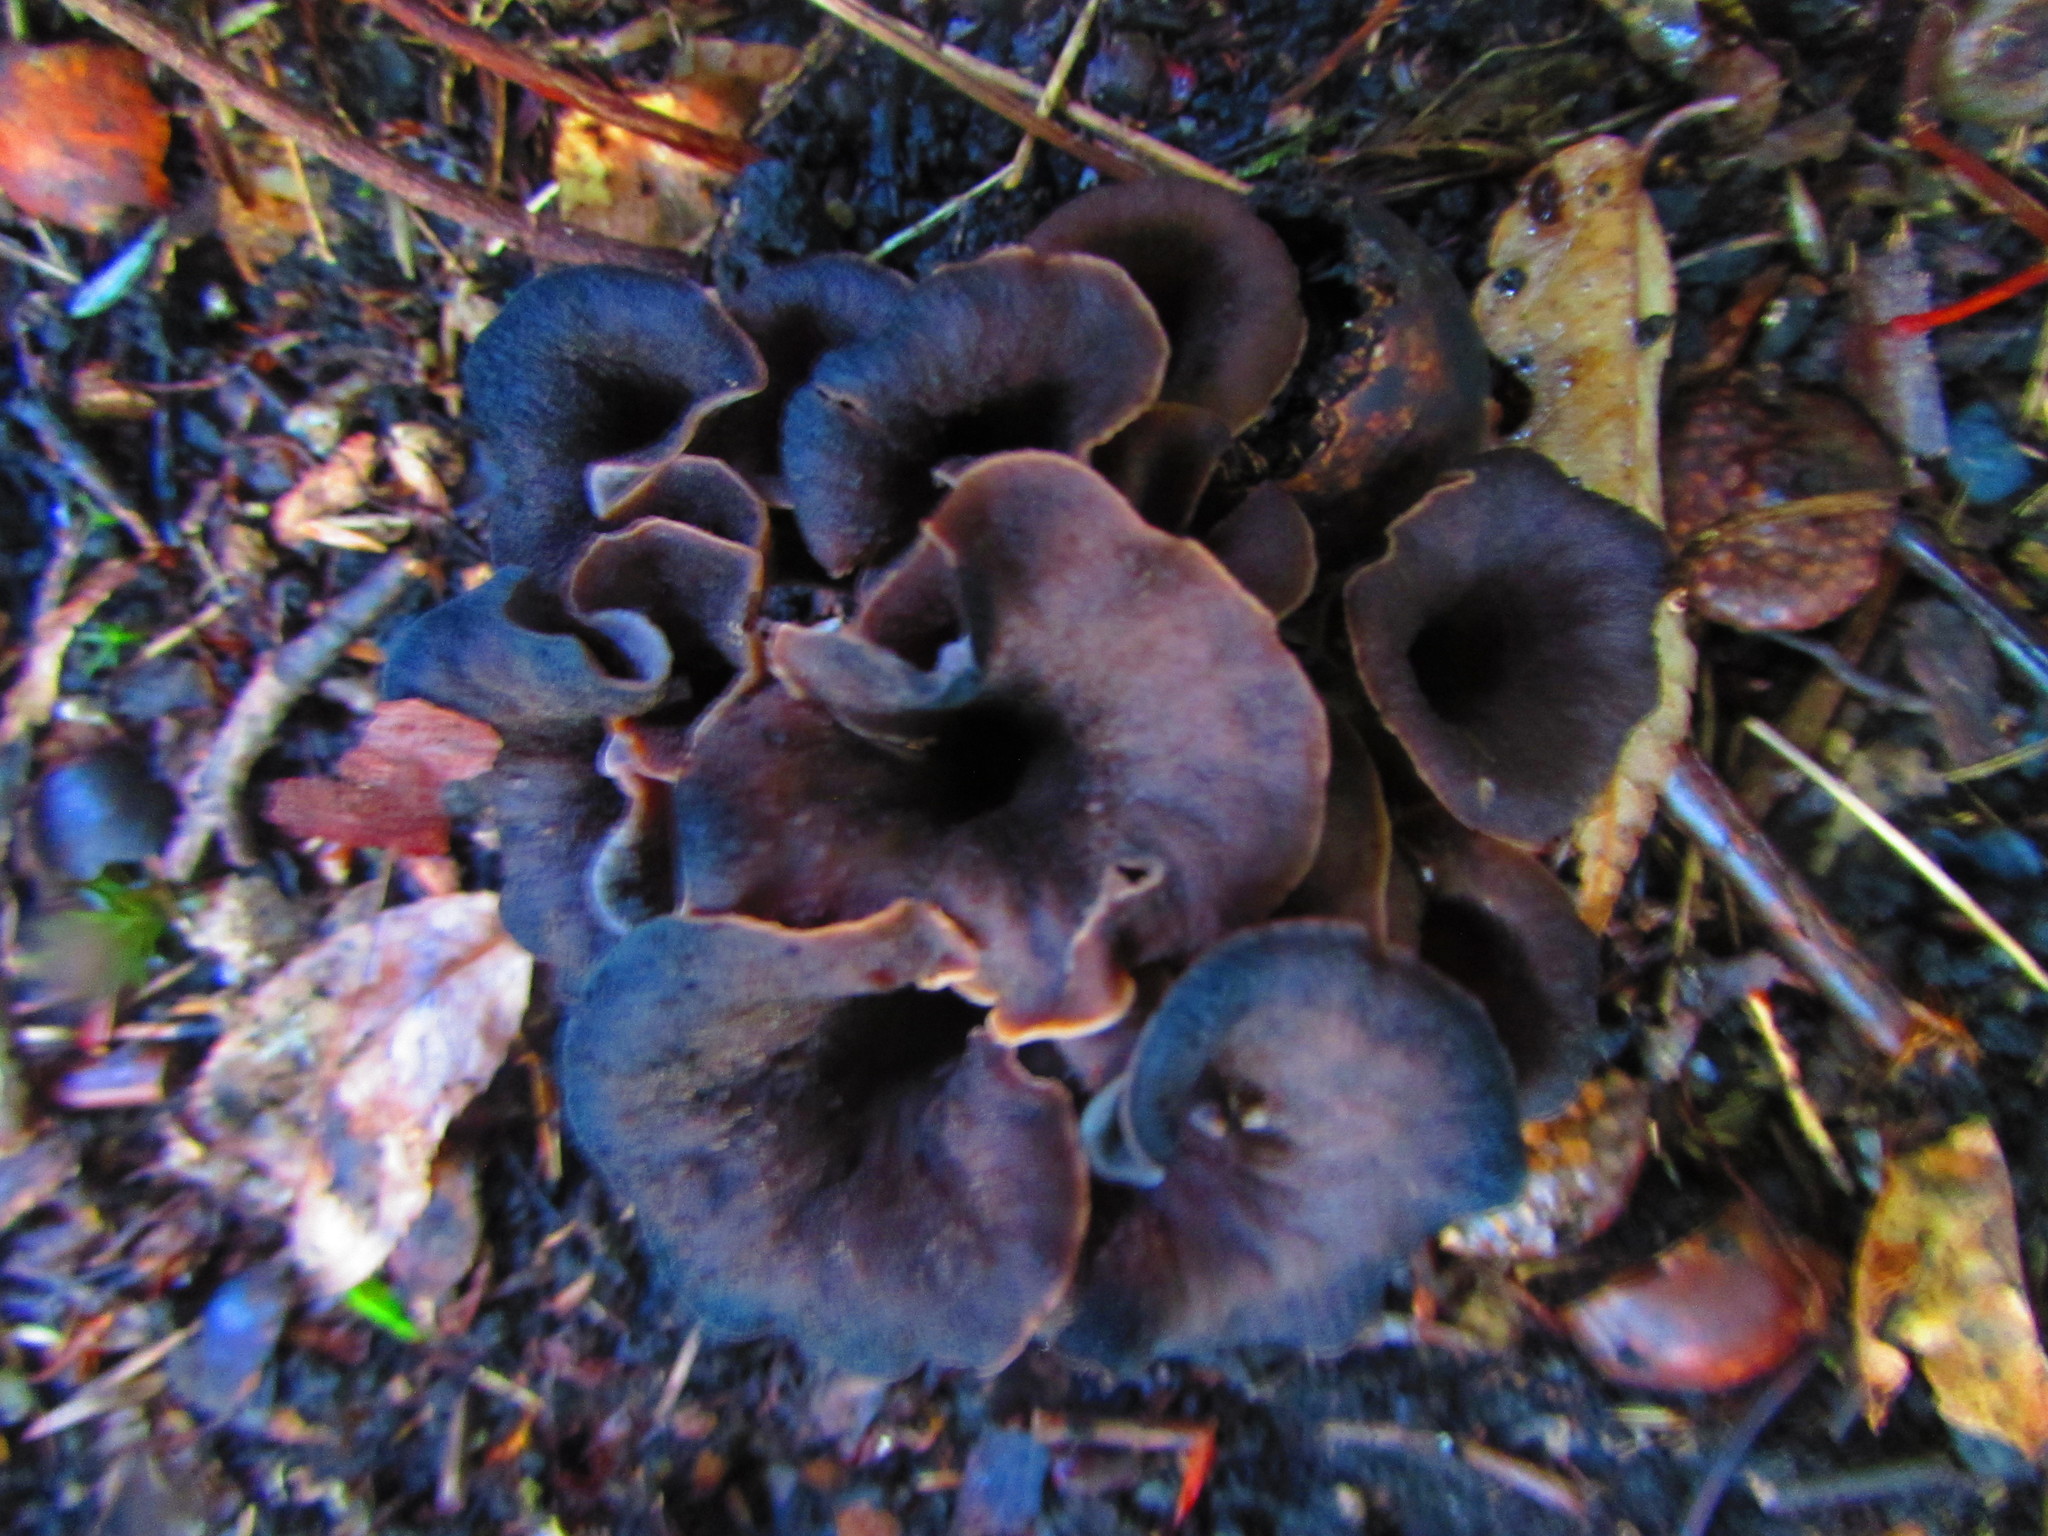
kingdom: Fungi
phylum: Basidiomycota
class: Agaricomycetes
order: Cantharellales
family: Hydnaceae
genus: Craterellus
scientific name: Craterellus cornucopioides
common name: Horn of plenty
